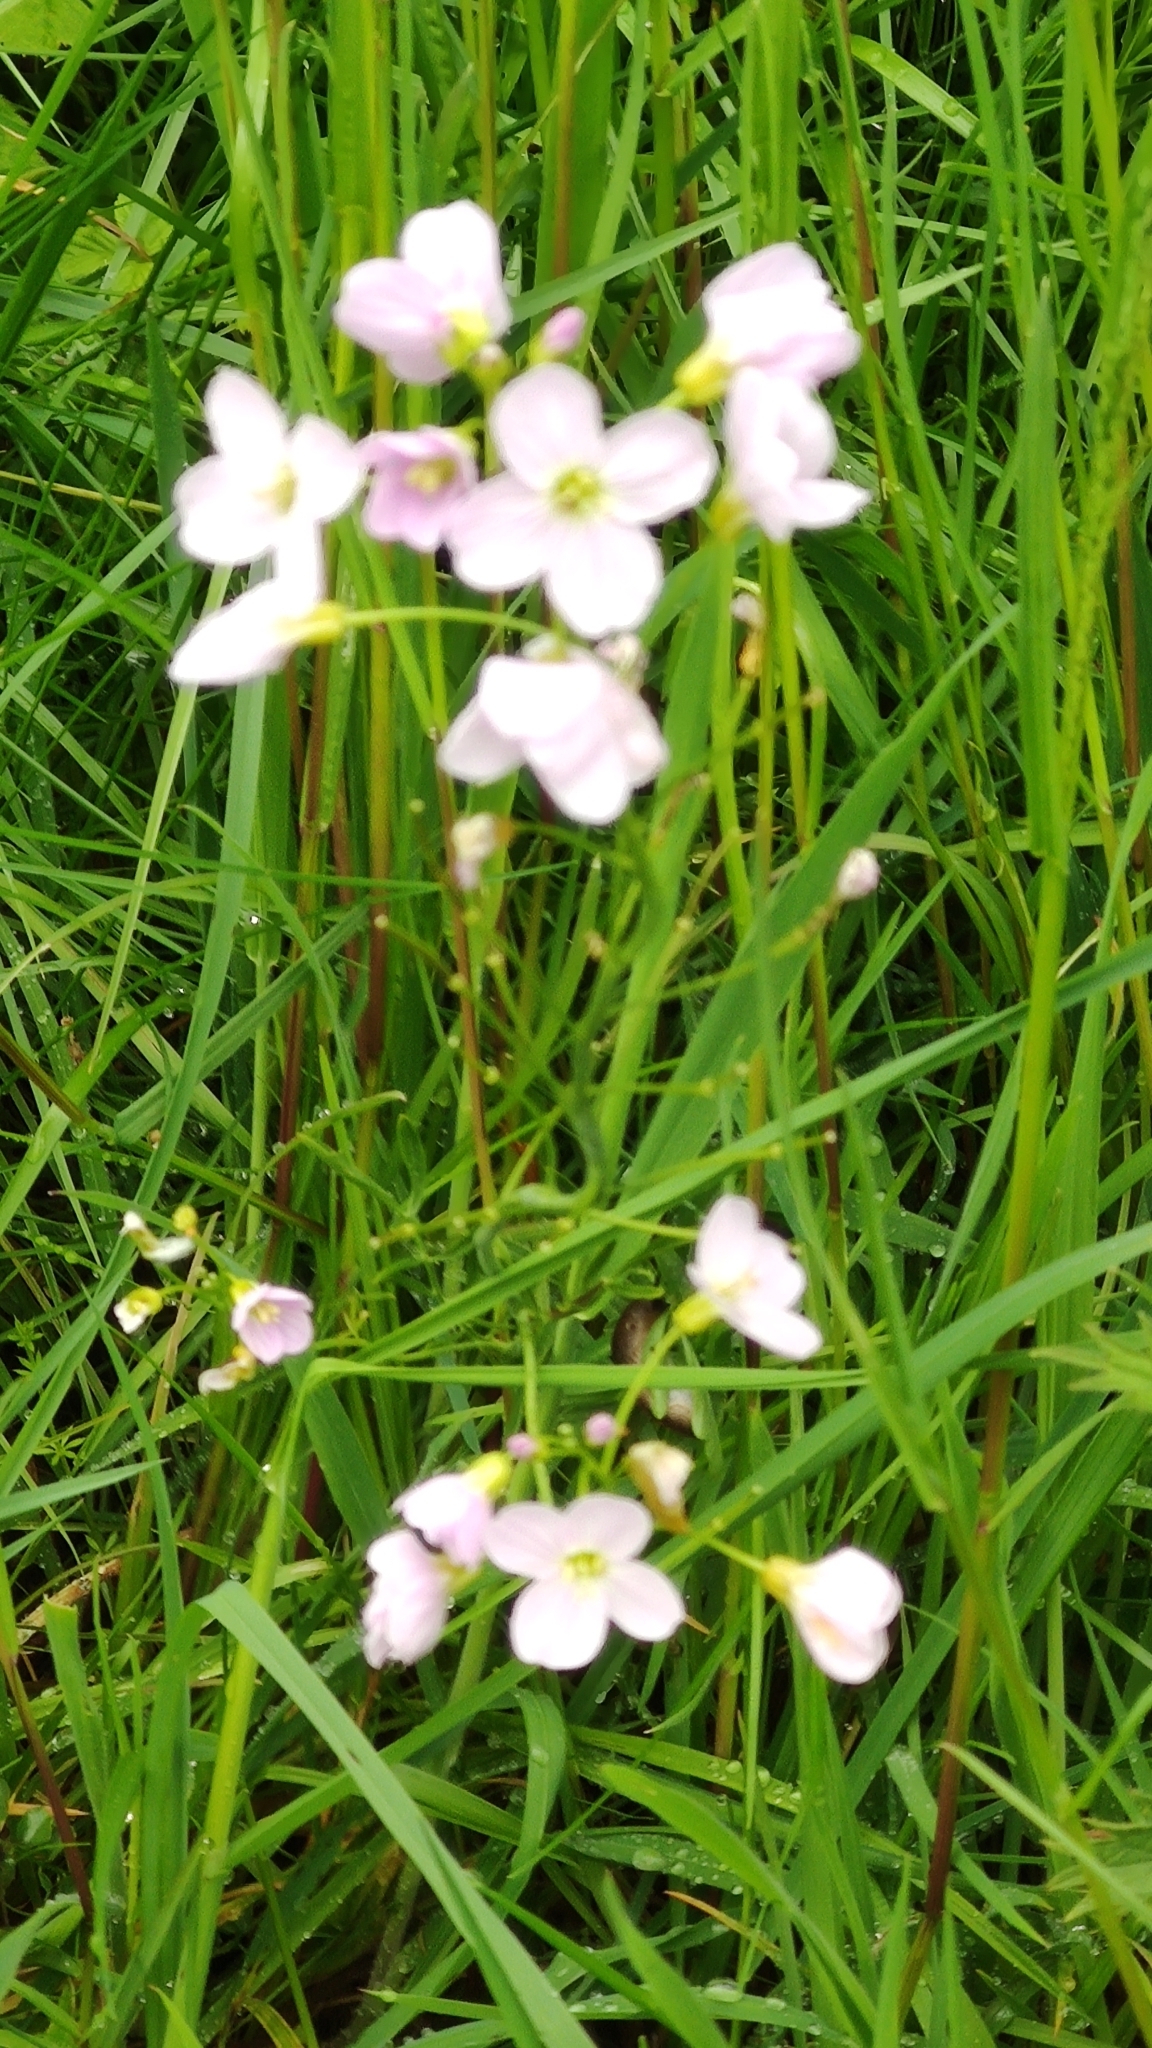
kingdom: Plantae
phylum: Tracheophyta
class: Magnoliopsida
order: Brassicales
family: Brassicaceae
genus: Cardamine
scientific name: Cardamine pratensis
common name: Cuckoo flower
